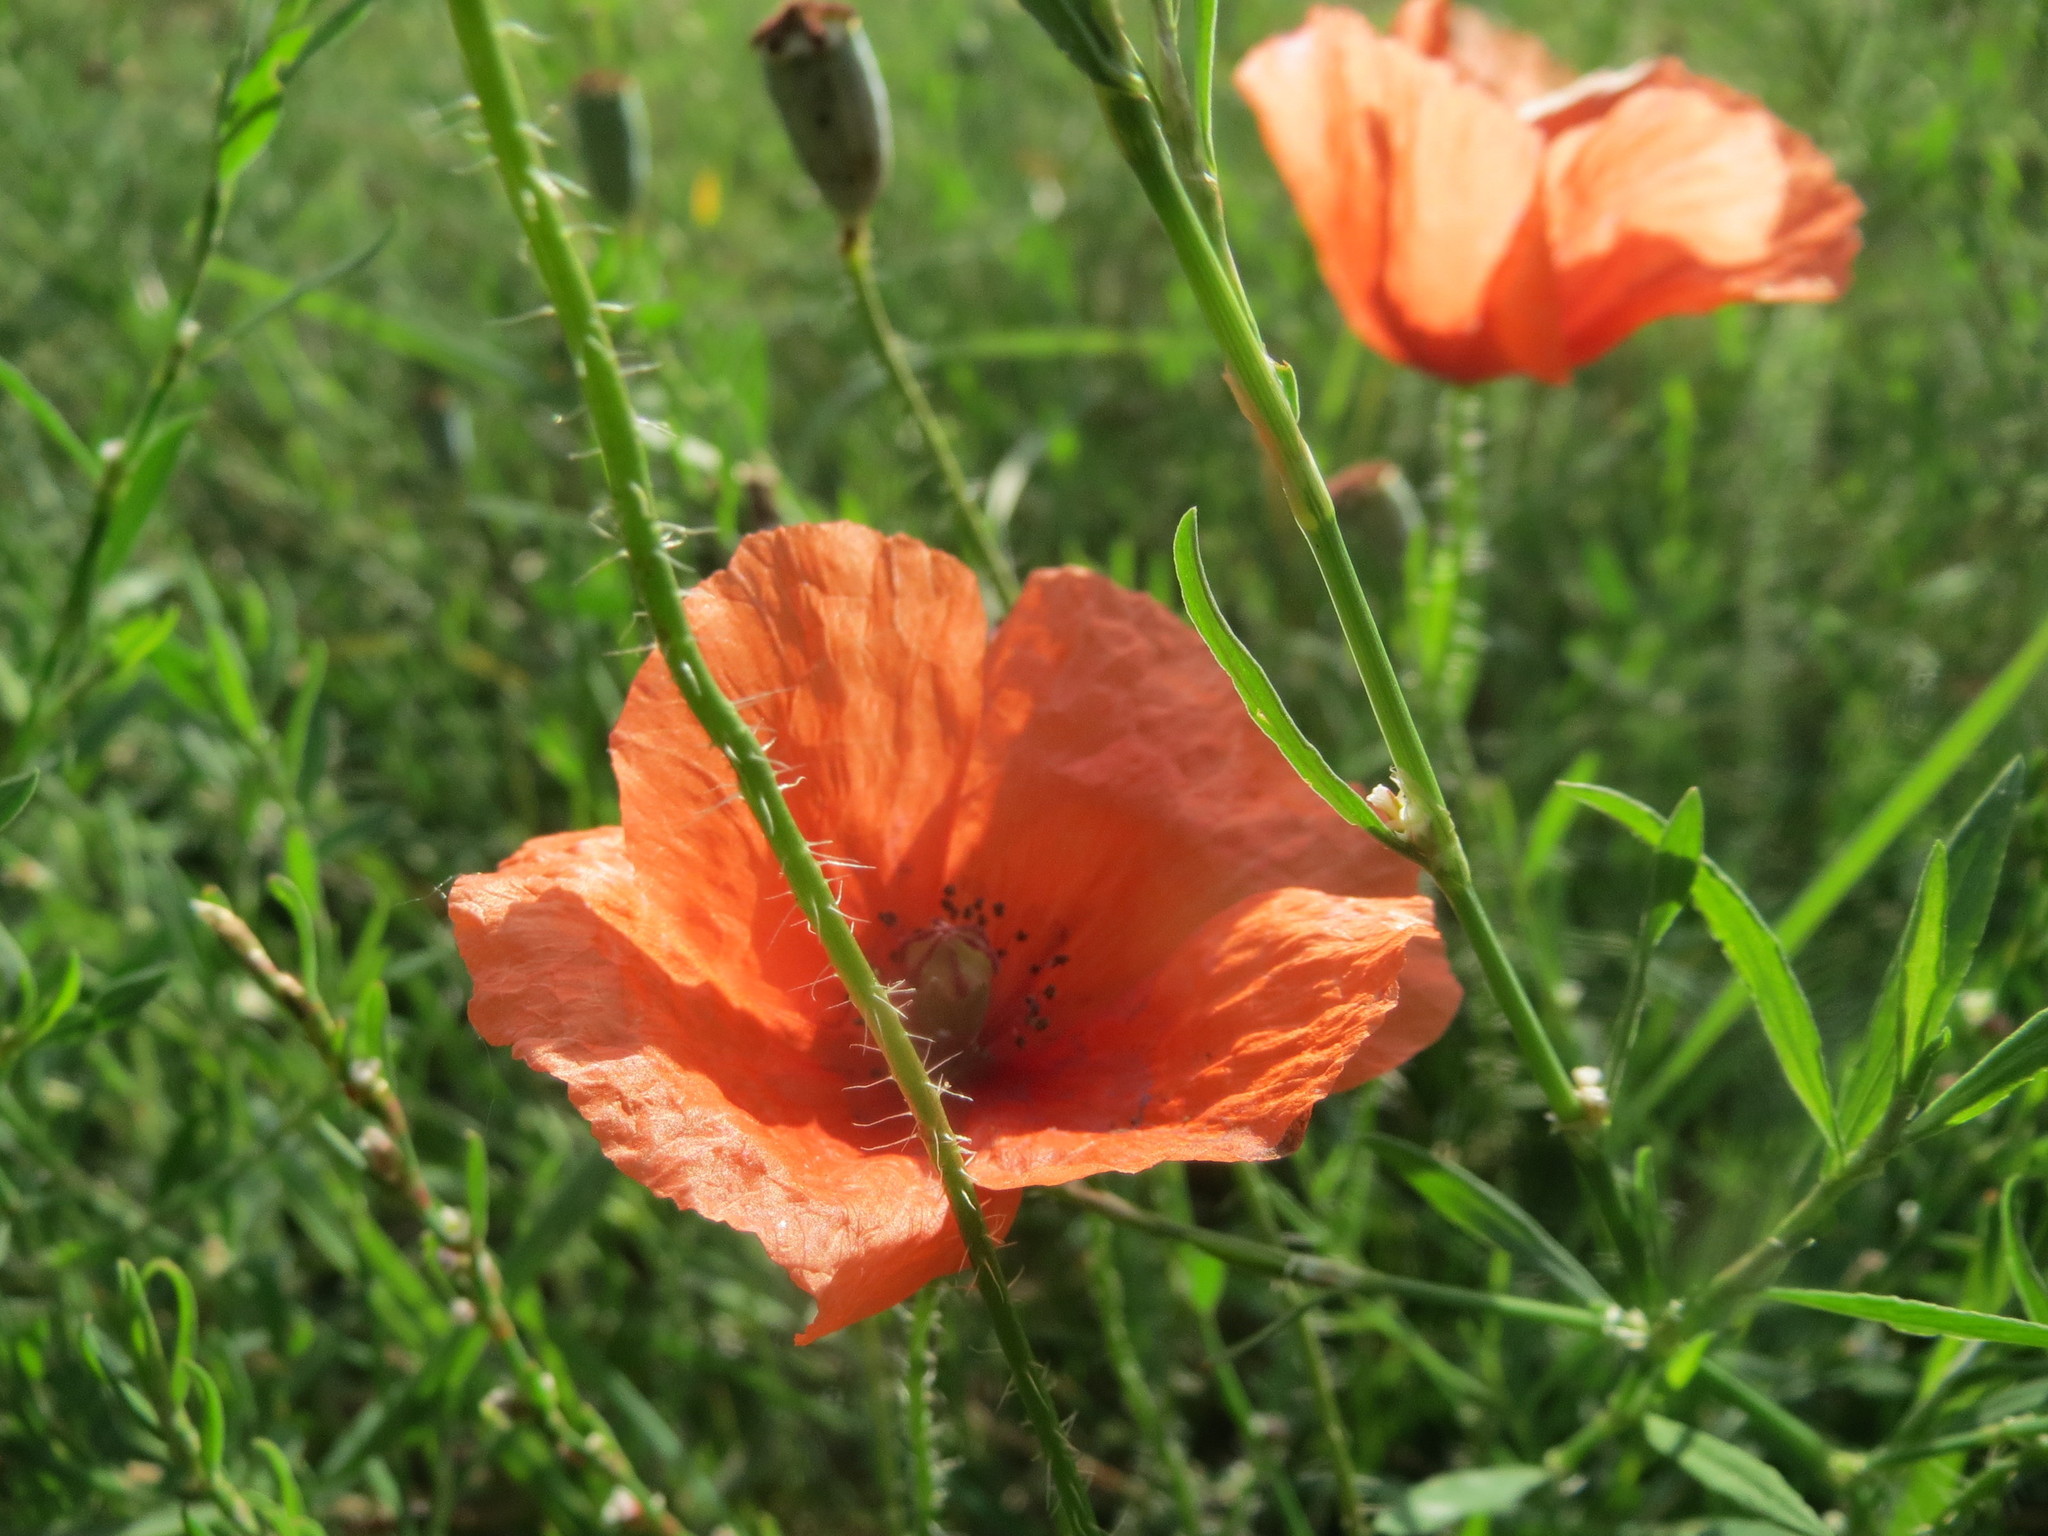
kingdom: Plantae
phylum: Tracheophyta
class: Magnoliopsida
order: Ranunculales
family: Papaveraceae
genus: Papaver
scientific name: Papaver rhoeas
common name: Corn poppy
